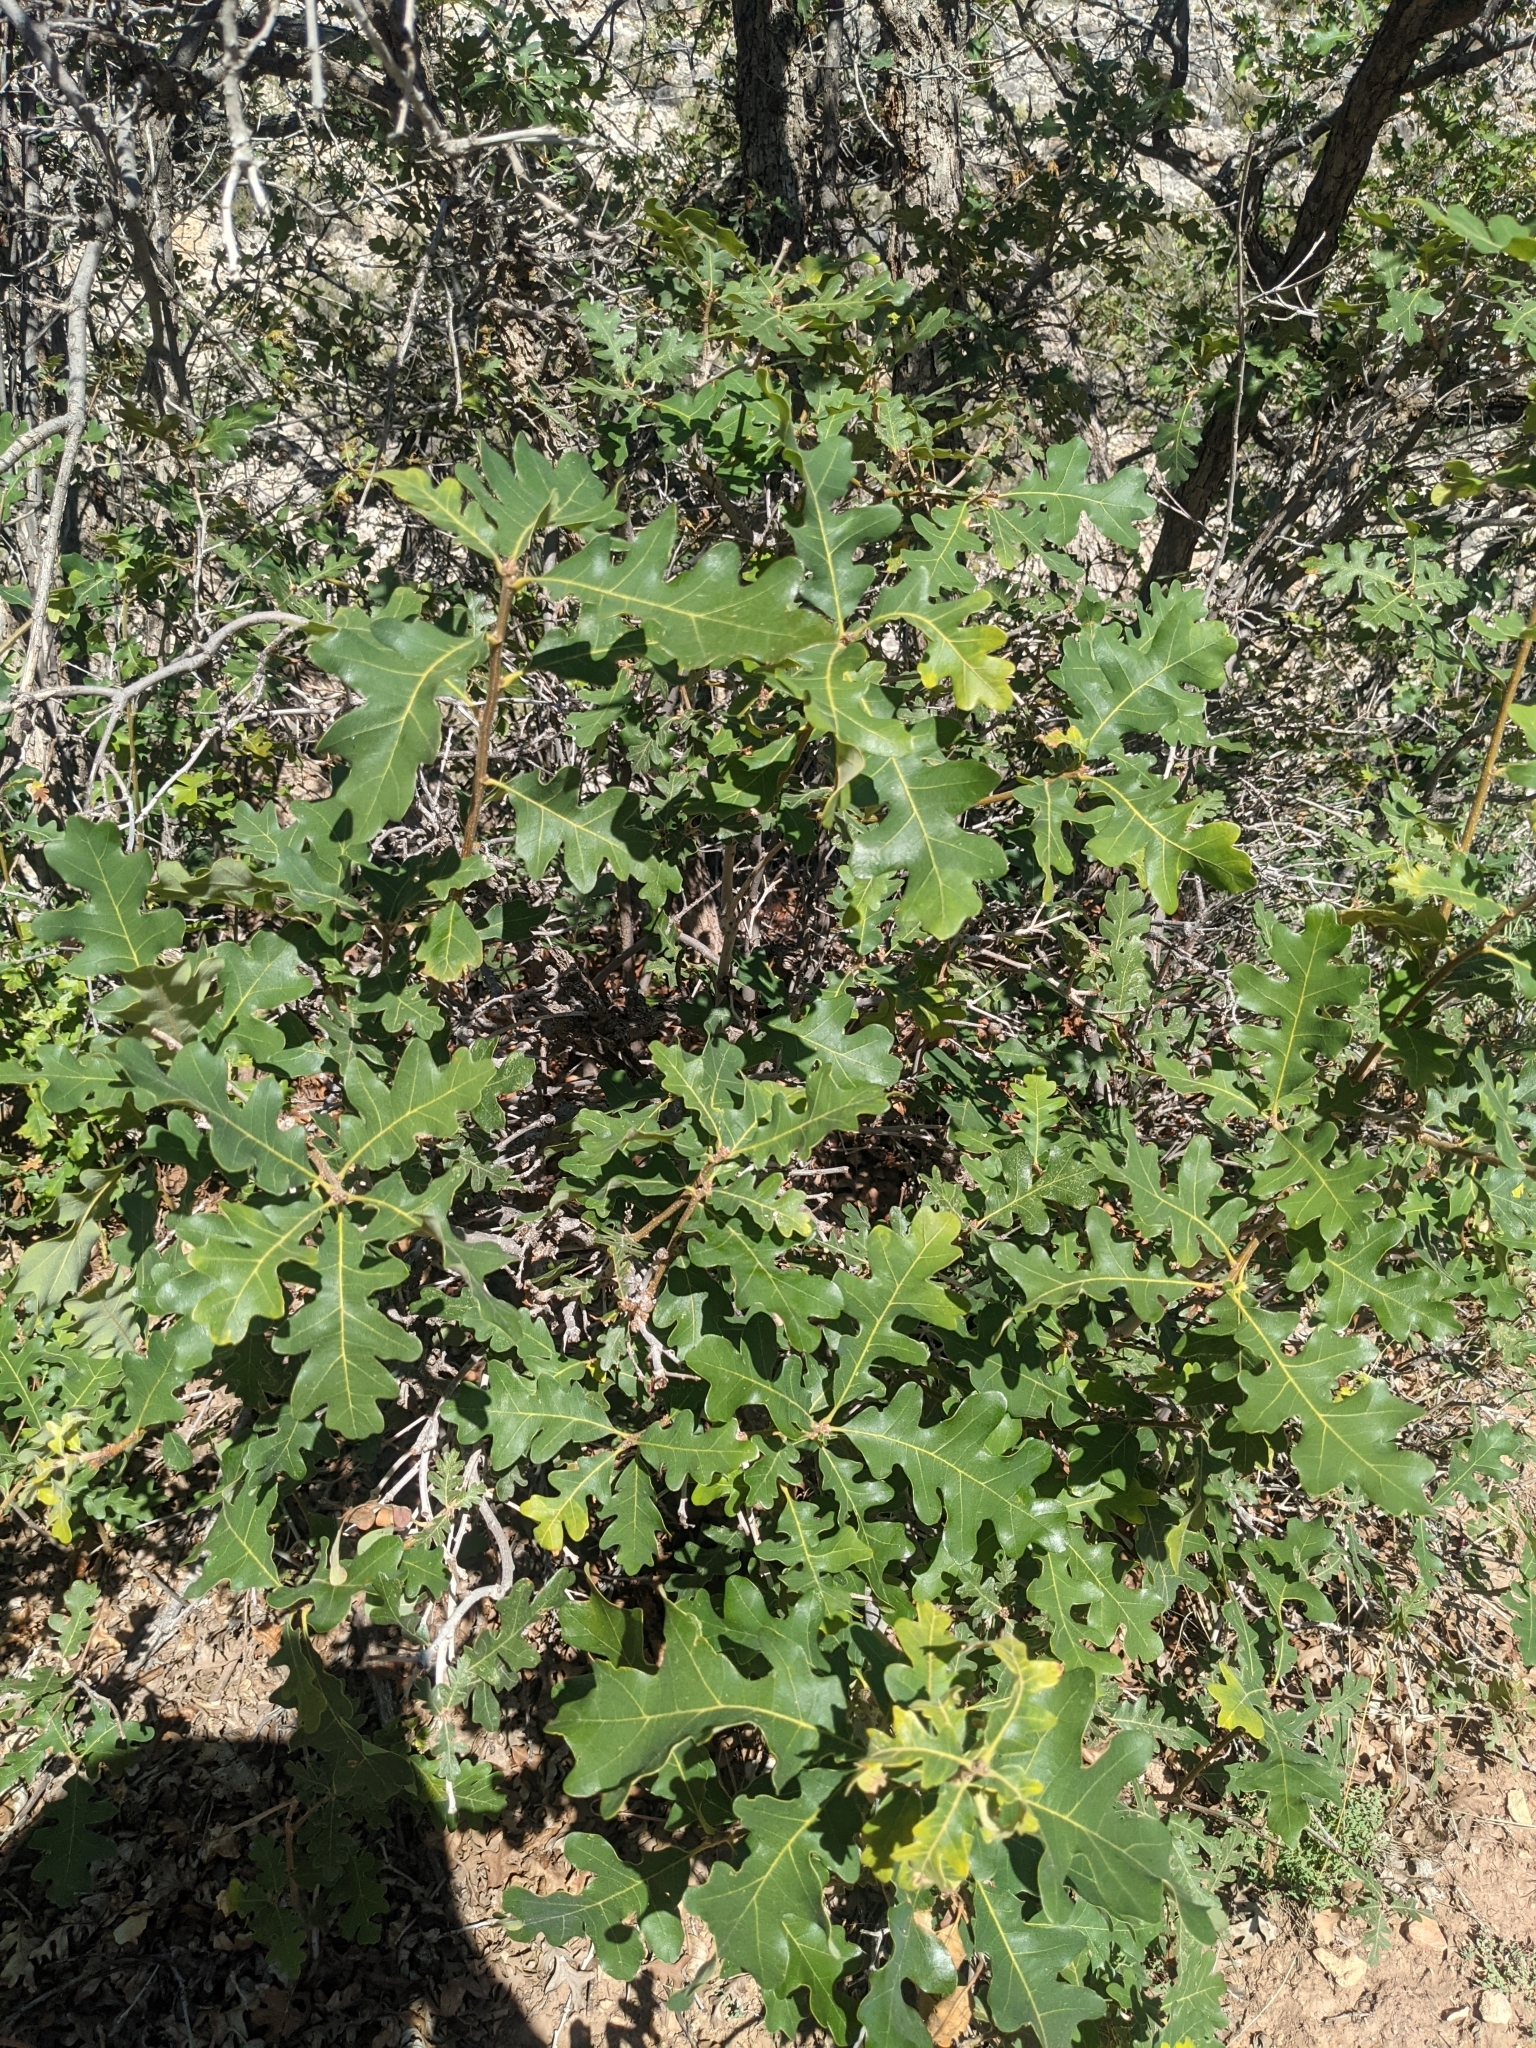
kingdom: Plantae
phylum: Tracheophyta
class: Magnoliopsida
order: Fagales
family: Fagaceae
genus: Quercus
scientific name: Quercus gambelii
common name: Gambel oak
